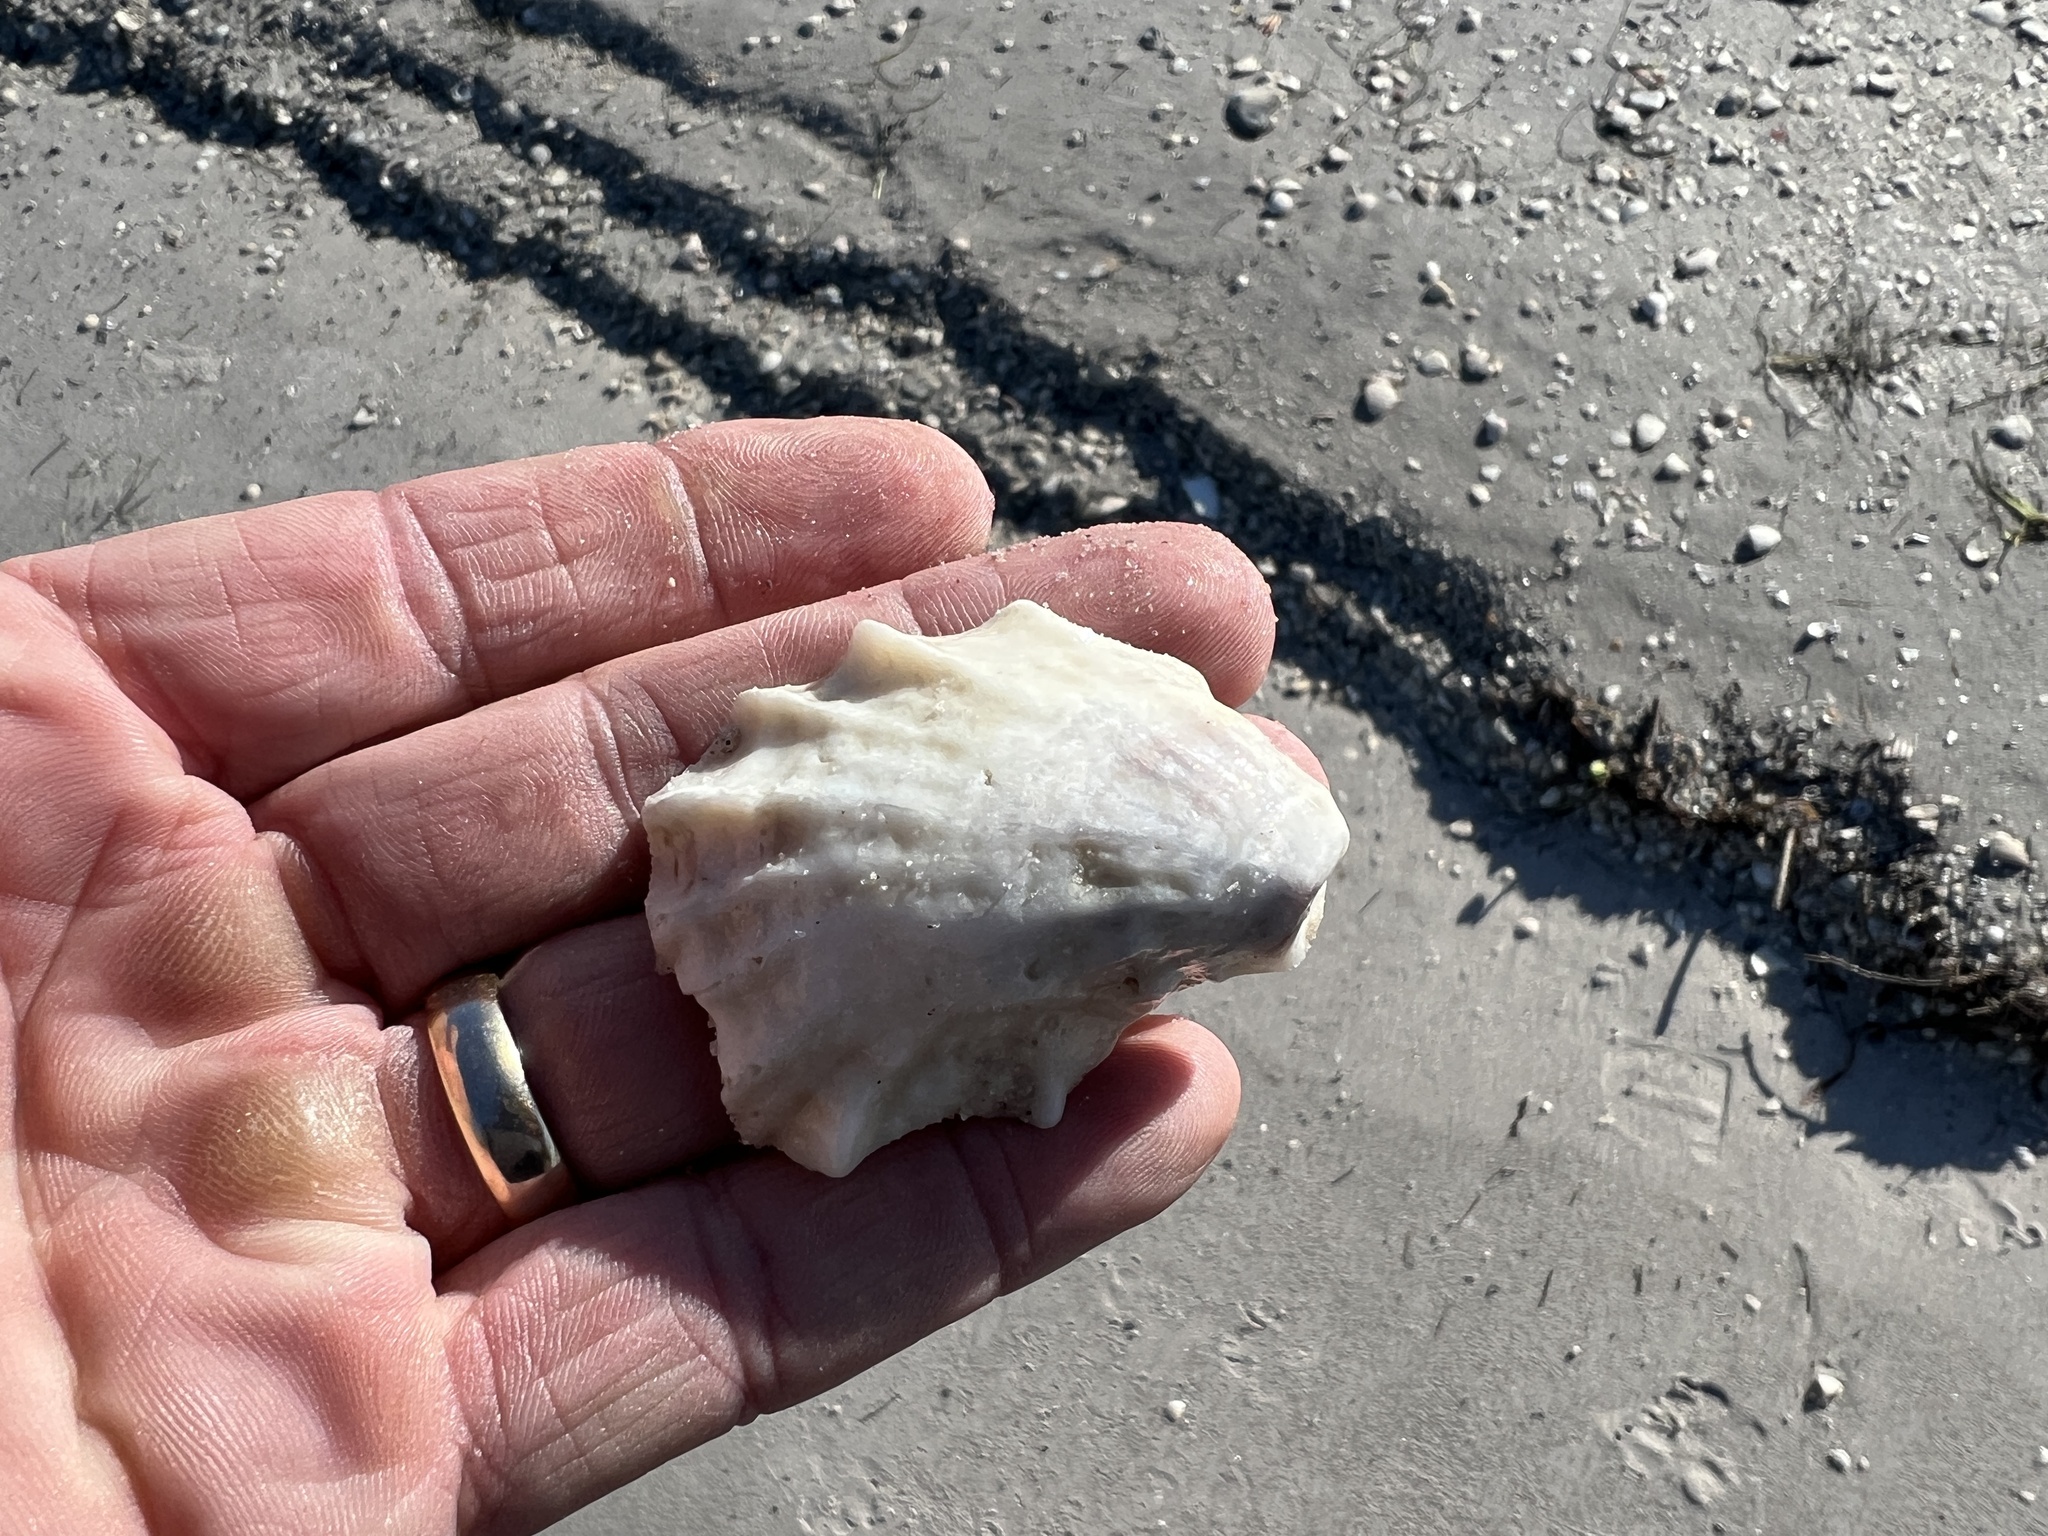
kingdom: Animalia
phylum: Mollusca
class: Bivalvia
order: Ostreida
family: Ostreidae
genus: Crassostrea
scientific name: Crassostrea virginica
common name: American oyster
